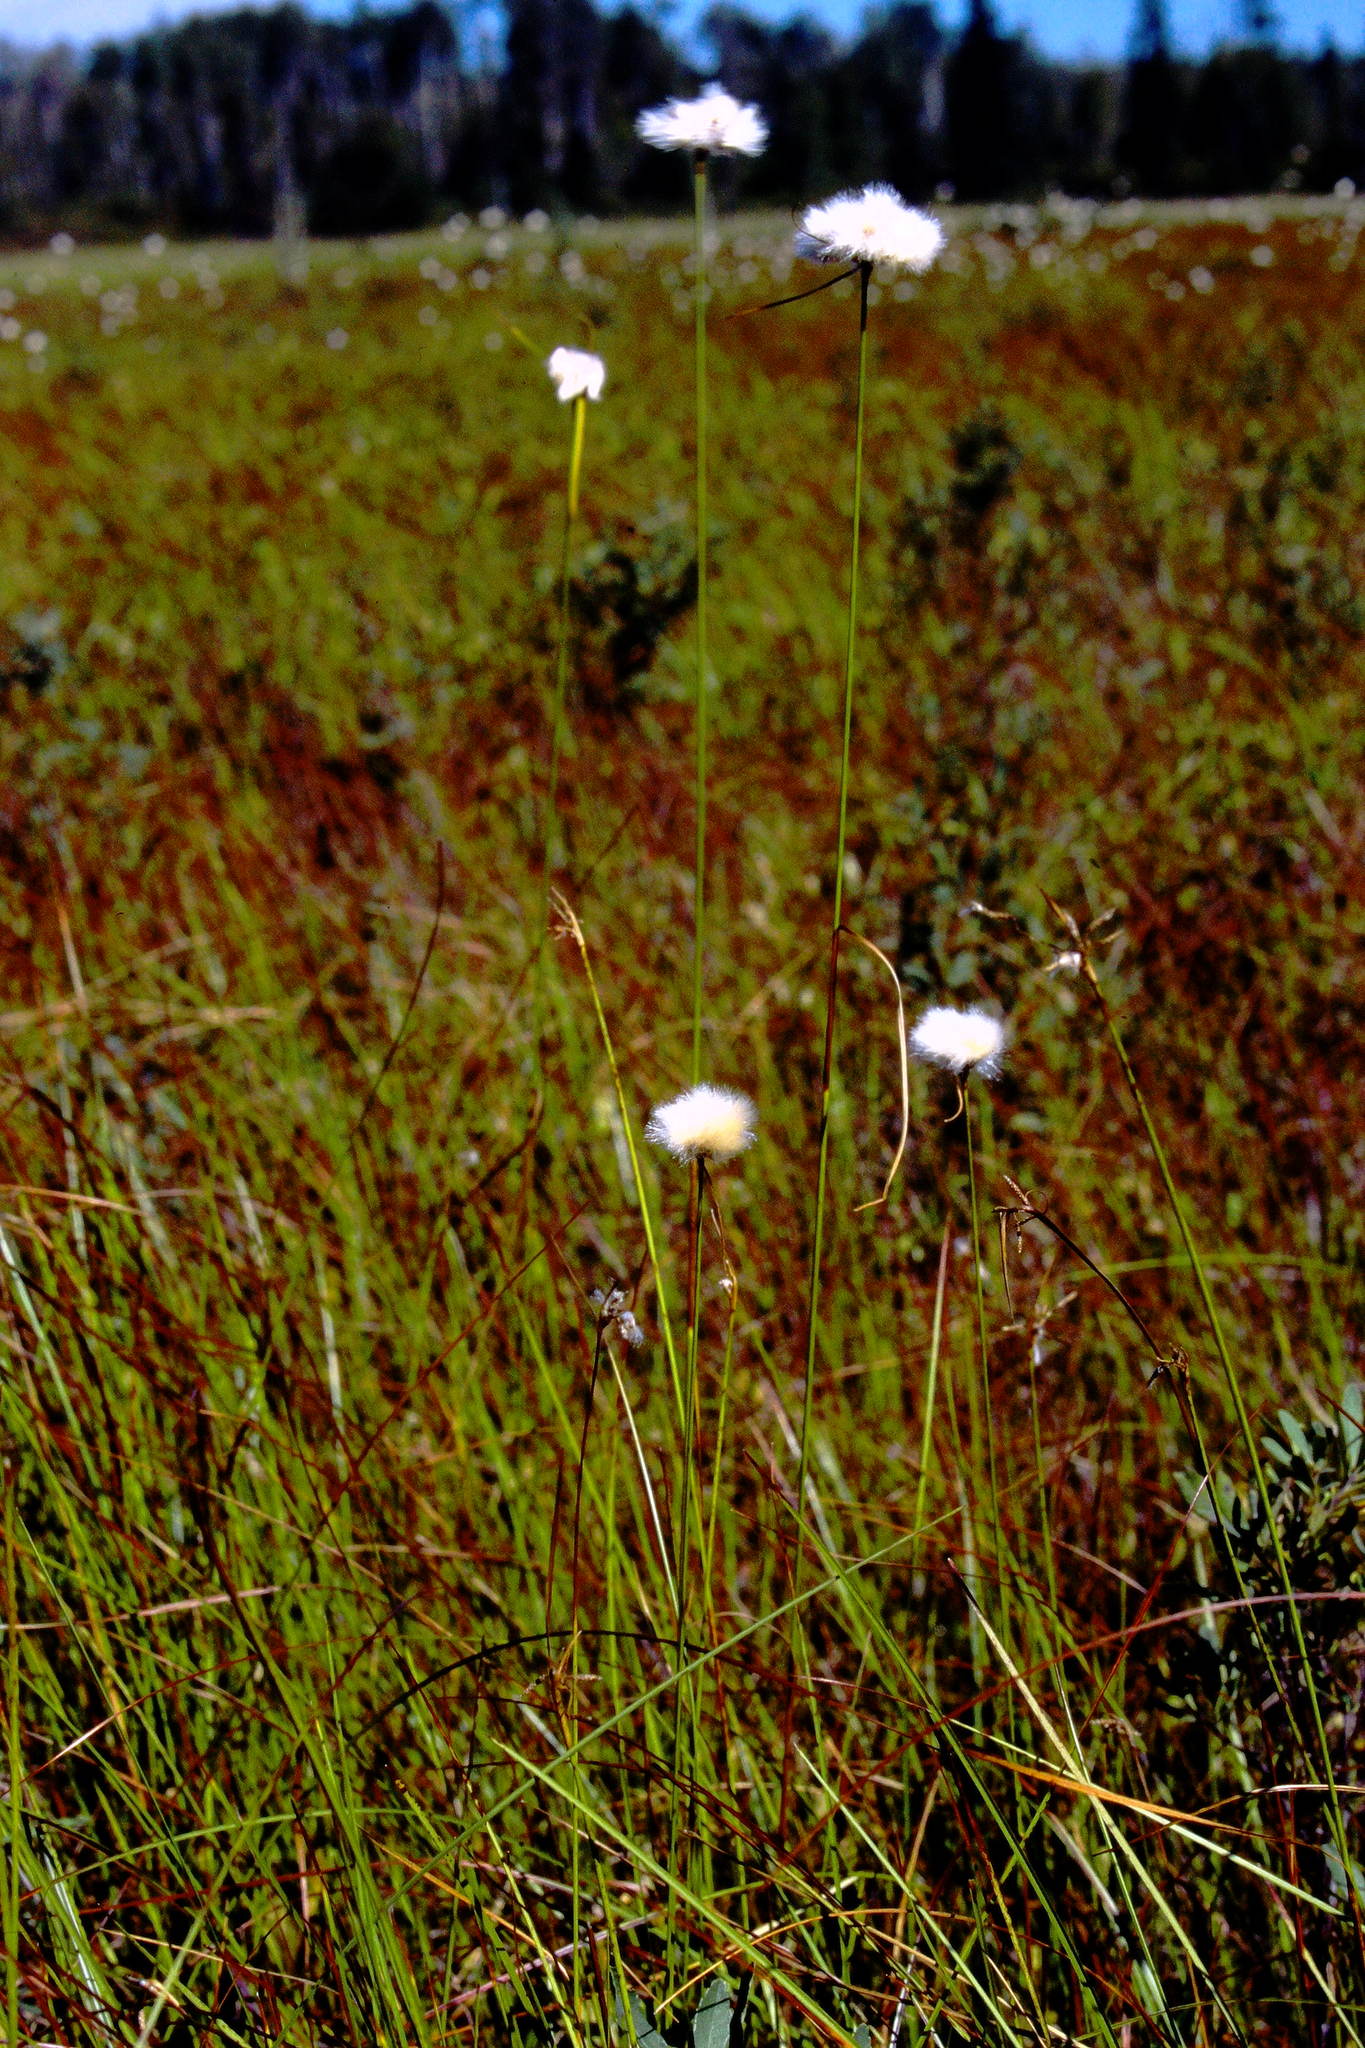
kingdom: Plantae
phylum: Tracheophyta
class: Liliopsida
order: Poales
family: Cyperaceae
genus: Eriophorum
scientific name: Eriophorum virginicum
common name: Tawny cottongrass
